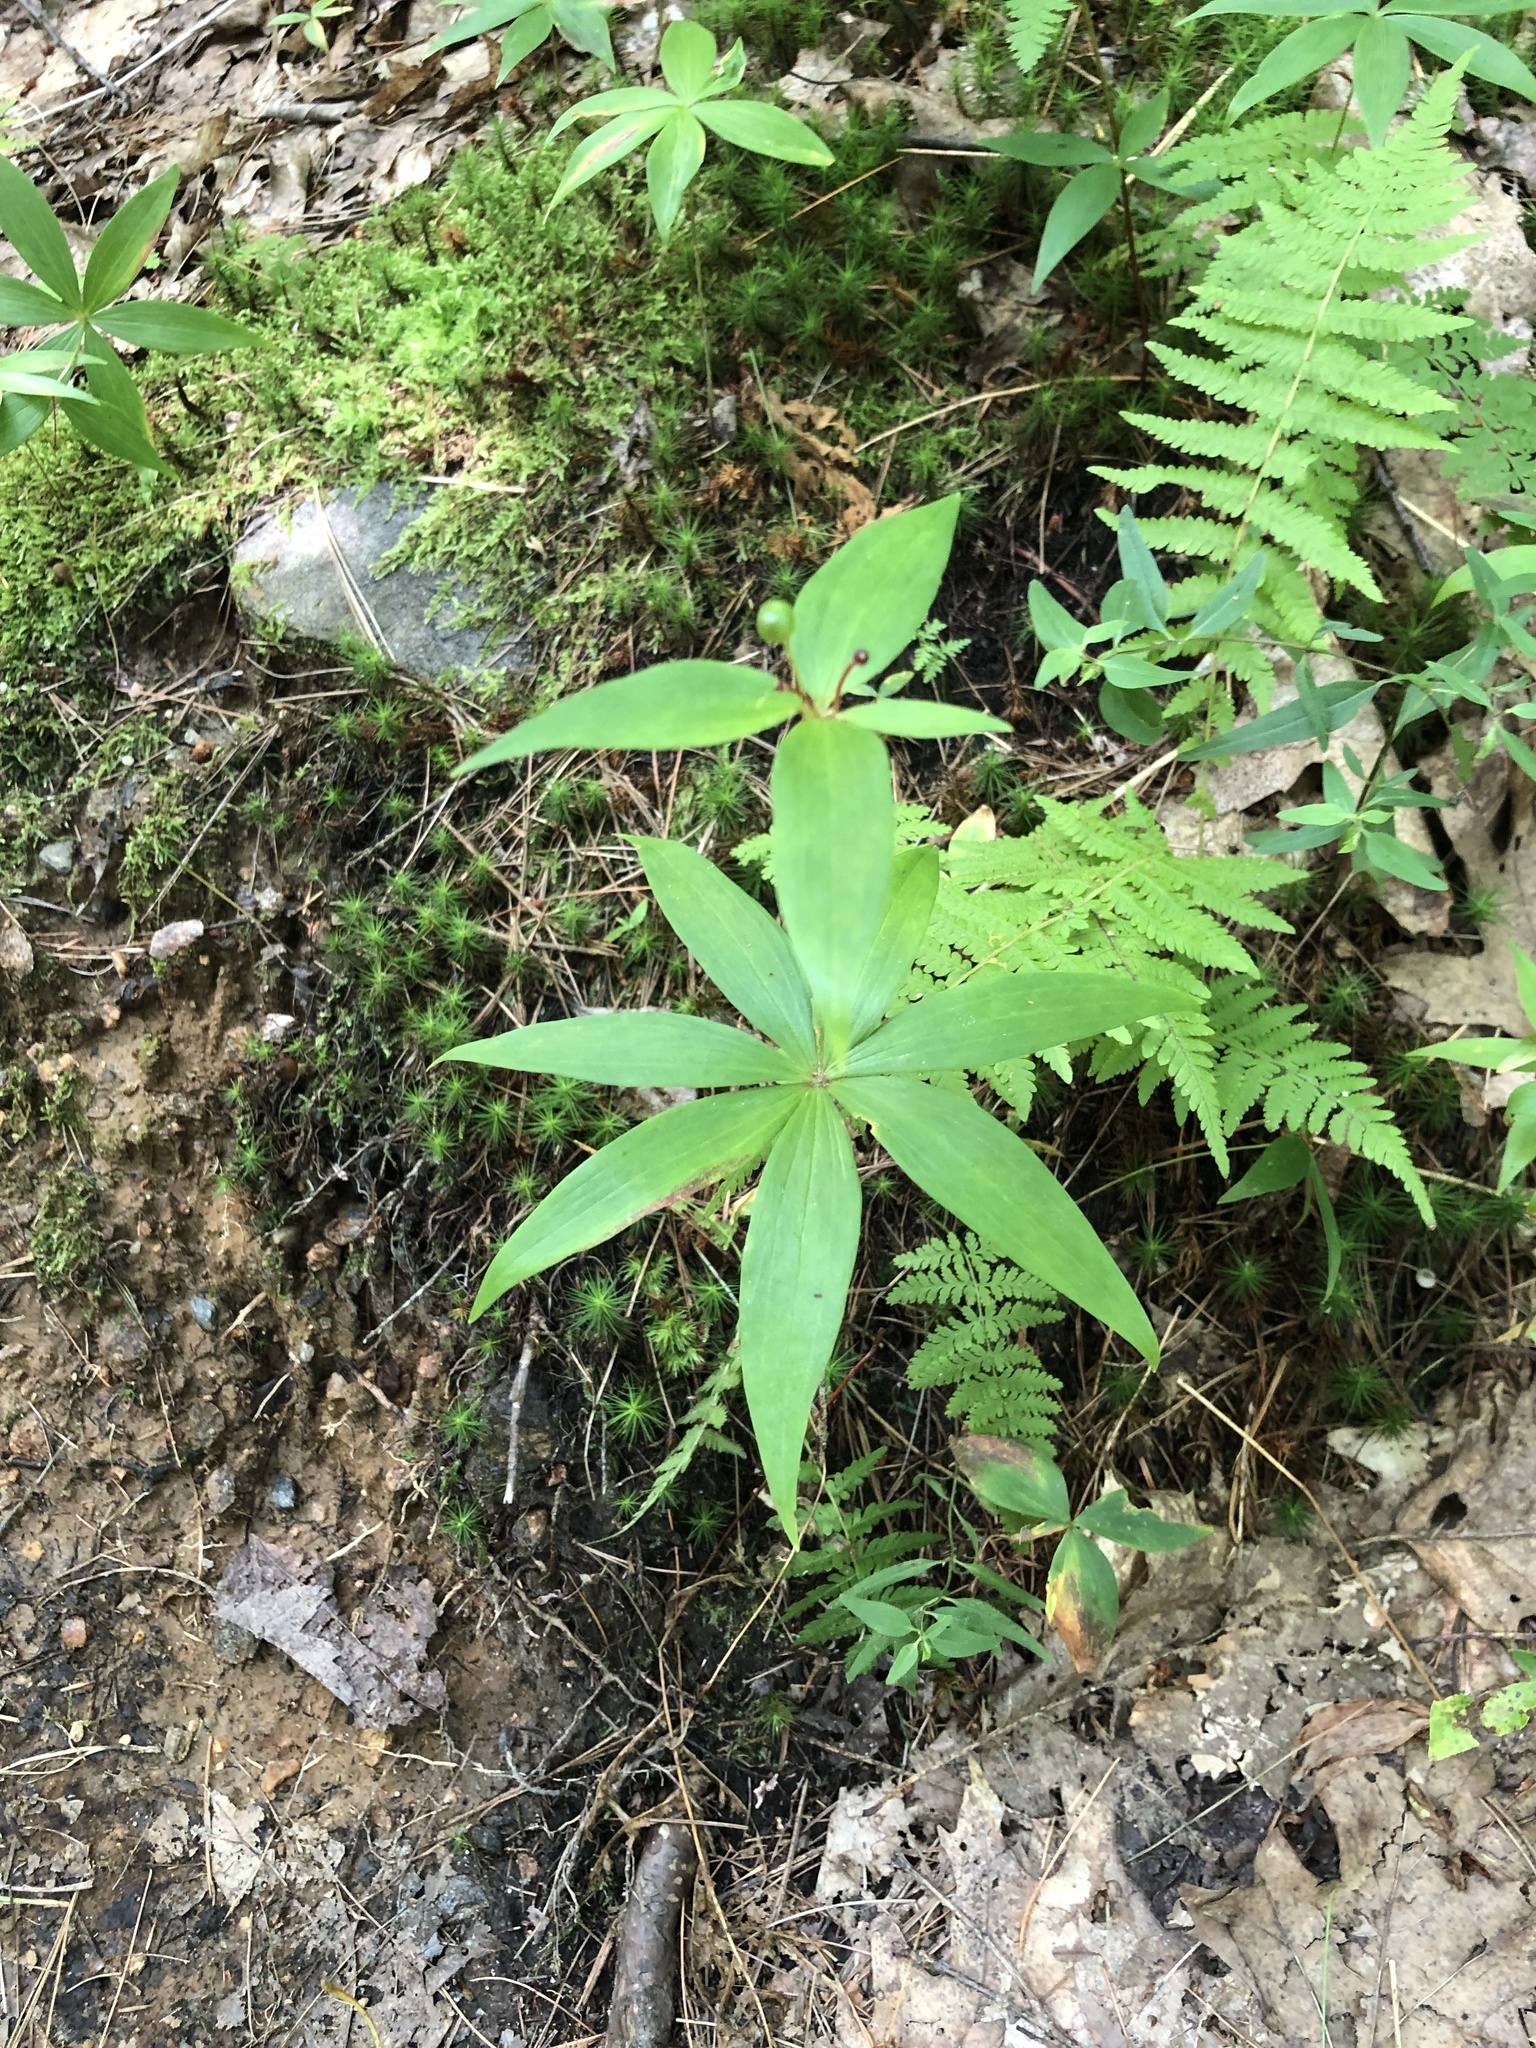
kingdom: Plantae
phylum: Tracheophyta
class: Liliopsida
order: Liliales
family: Liliaceae
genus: Medeola
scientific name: Medeola virginiana
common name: Indian cucumber-root
